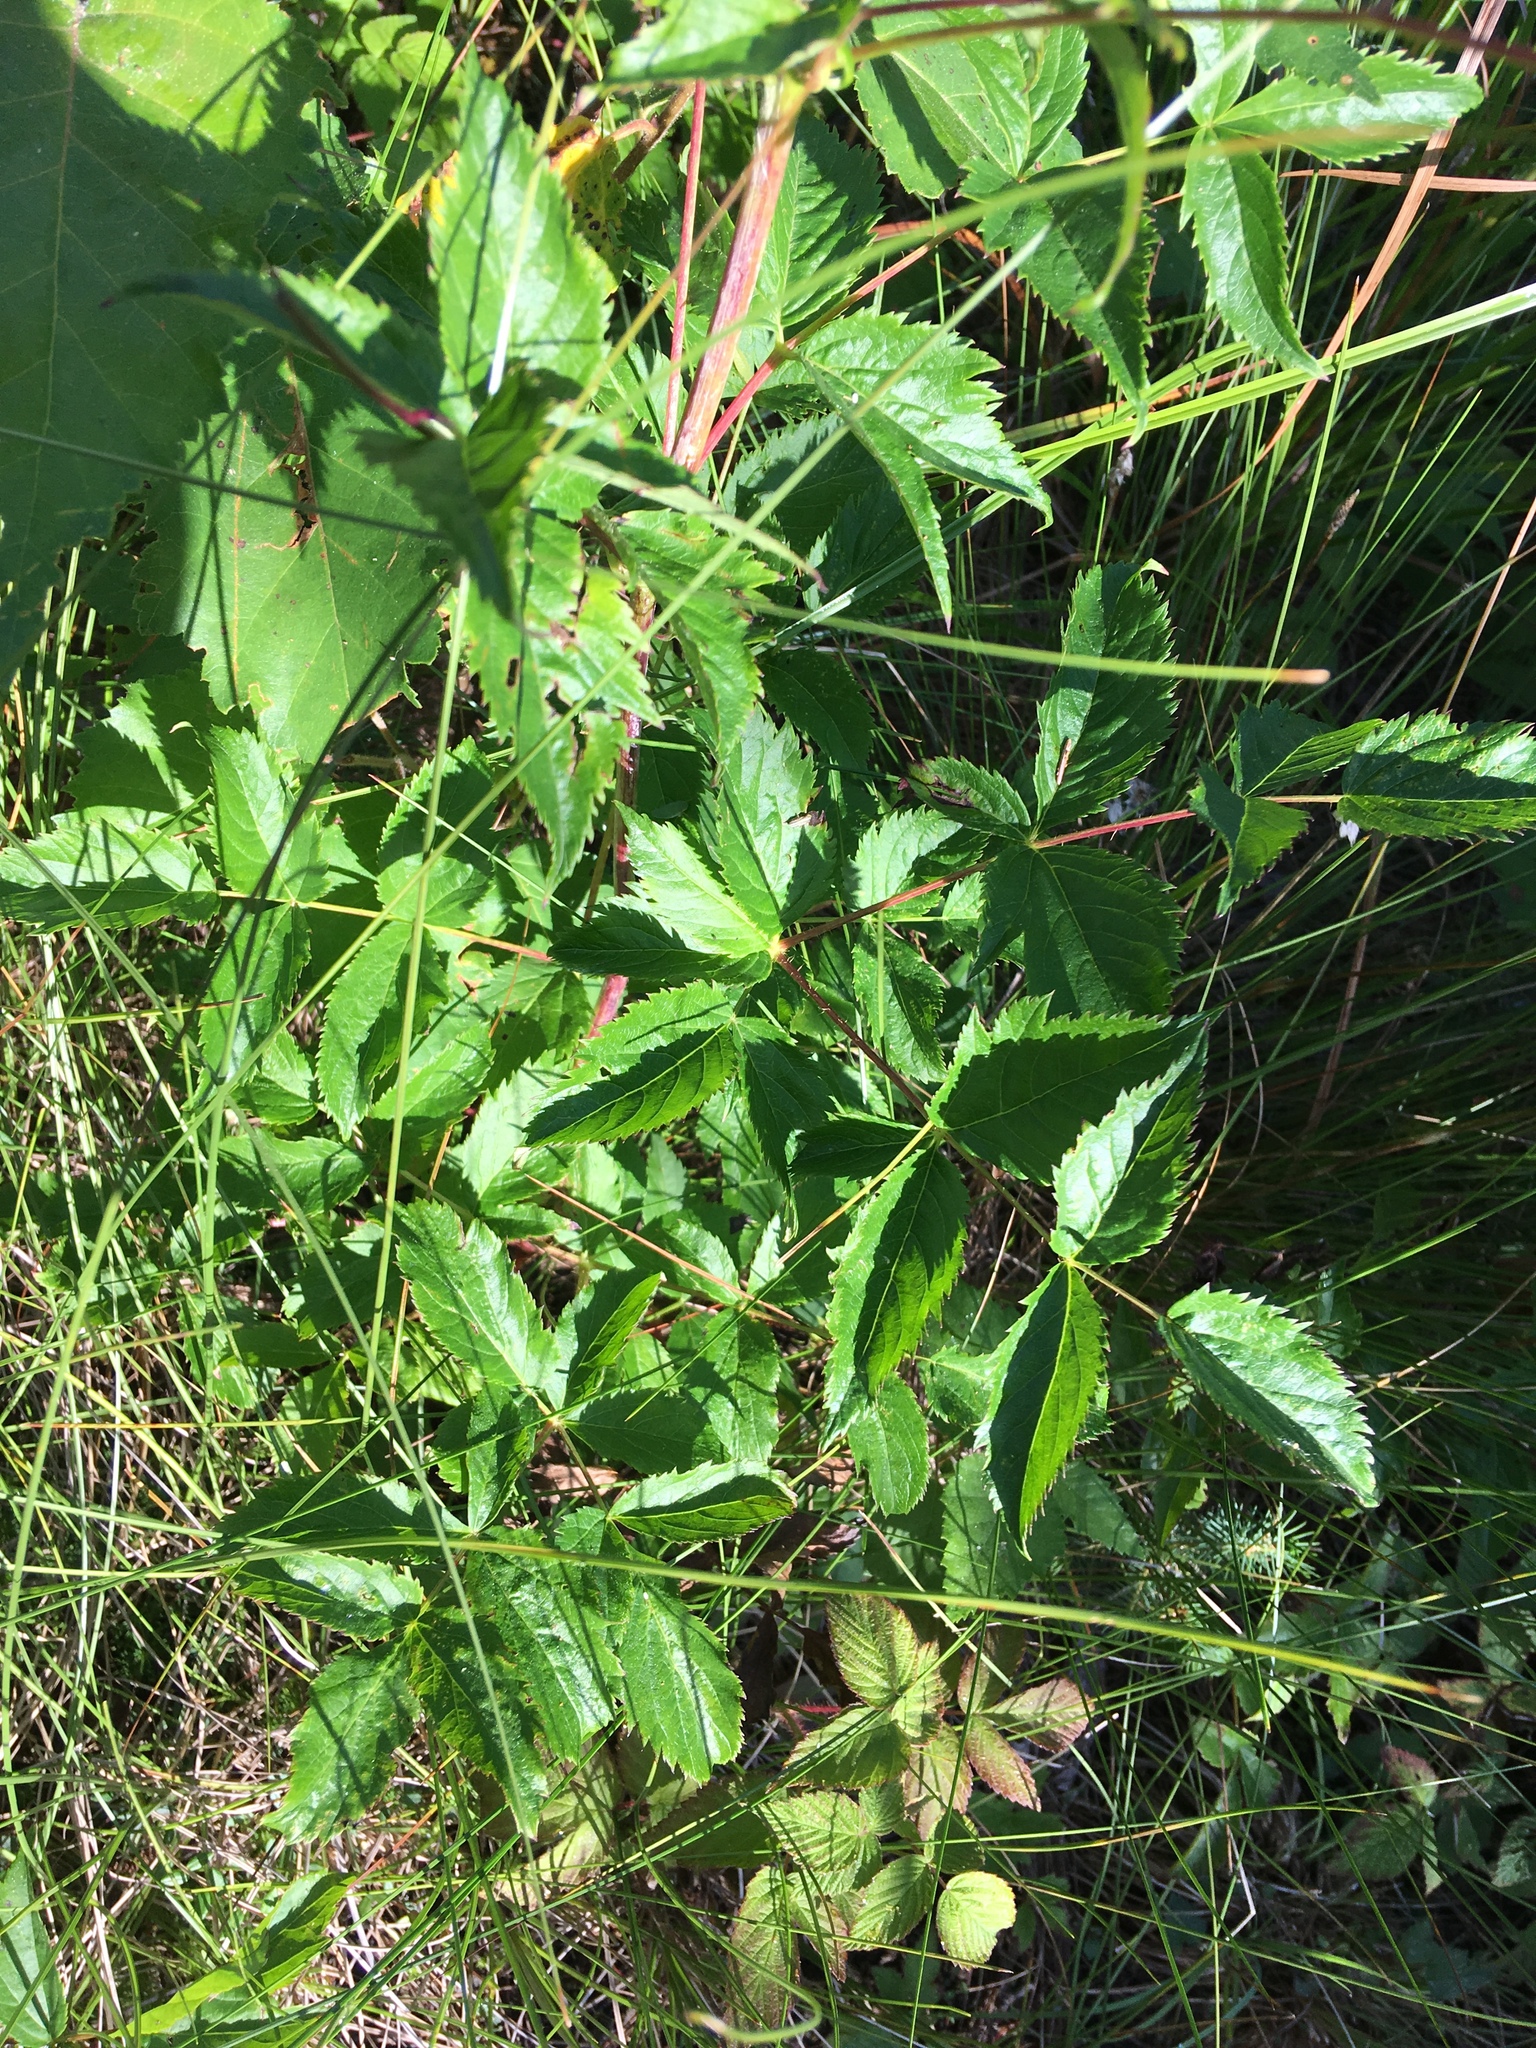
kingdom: Plantae
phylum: Tracheophyta
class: Magnoliopsida
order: Apiales
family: Araliaceae
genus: Aralia
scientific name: Aralia hispida
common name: Bristly sarsaparilla
